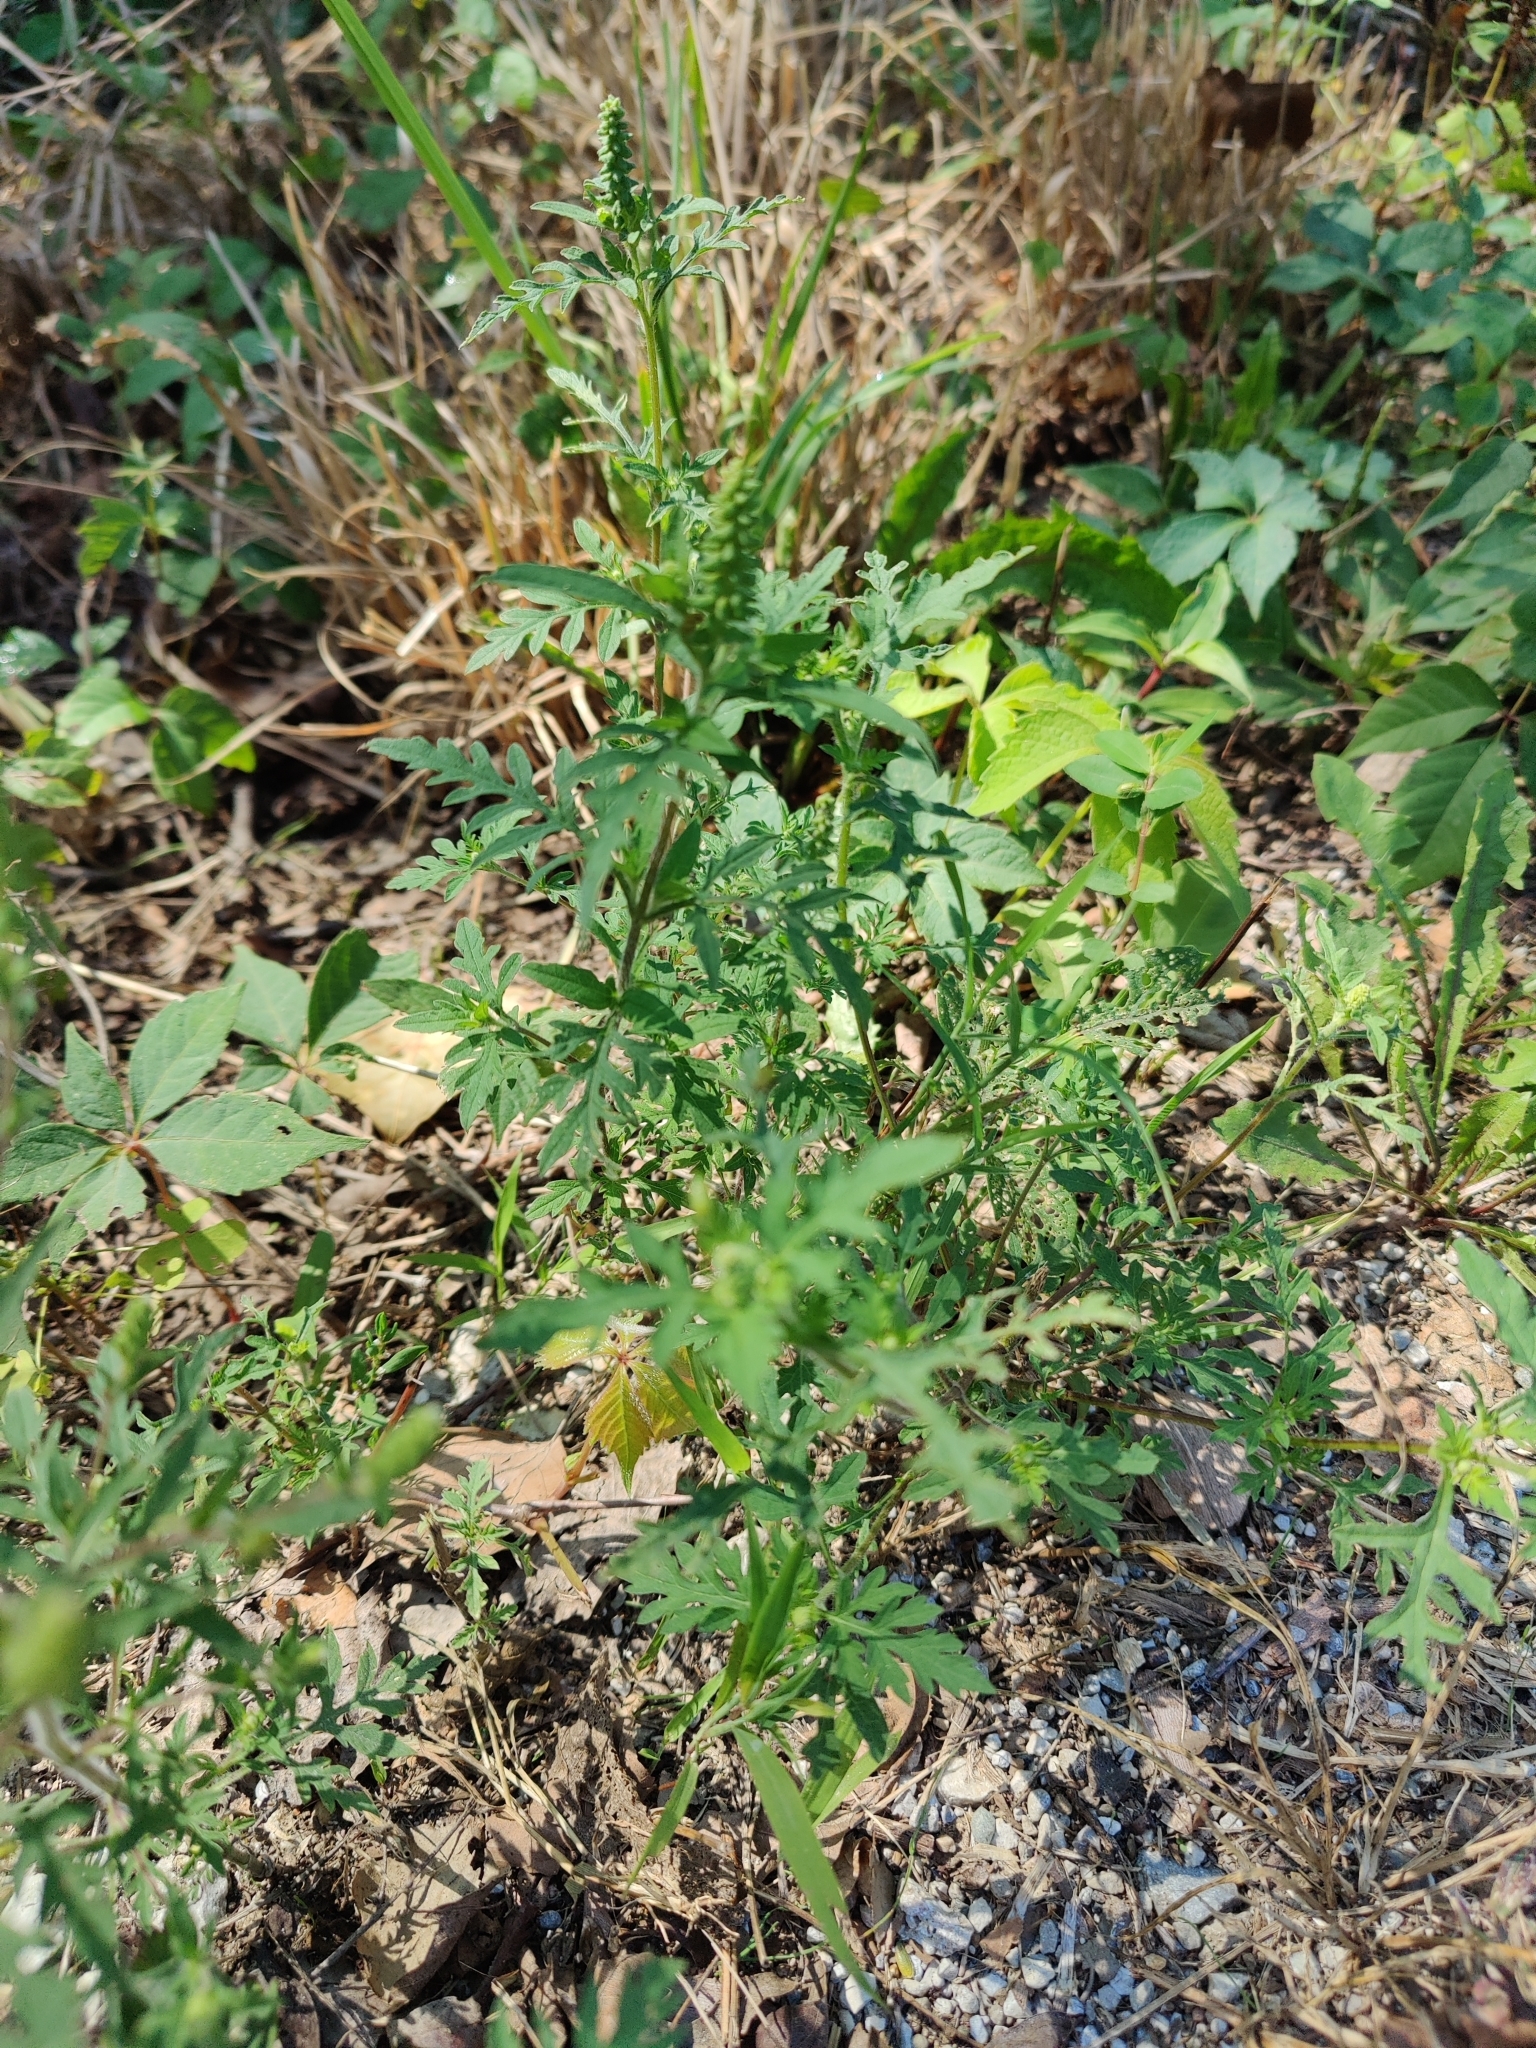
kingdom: Plantae
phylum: Tracheophyta
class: Magnoliopsida
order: Asterales
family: Asteraceae
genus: Ambrosia
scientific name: Ambrosia artemisiifolia
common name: Annual ragweed
